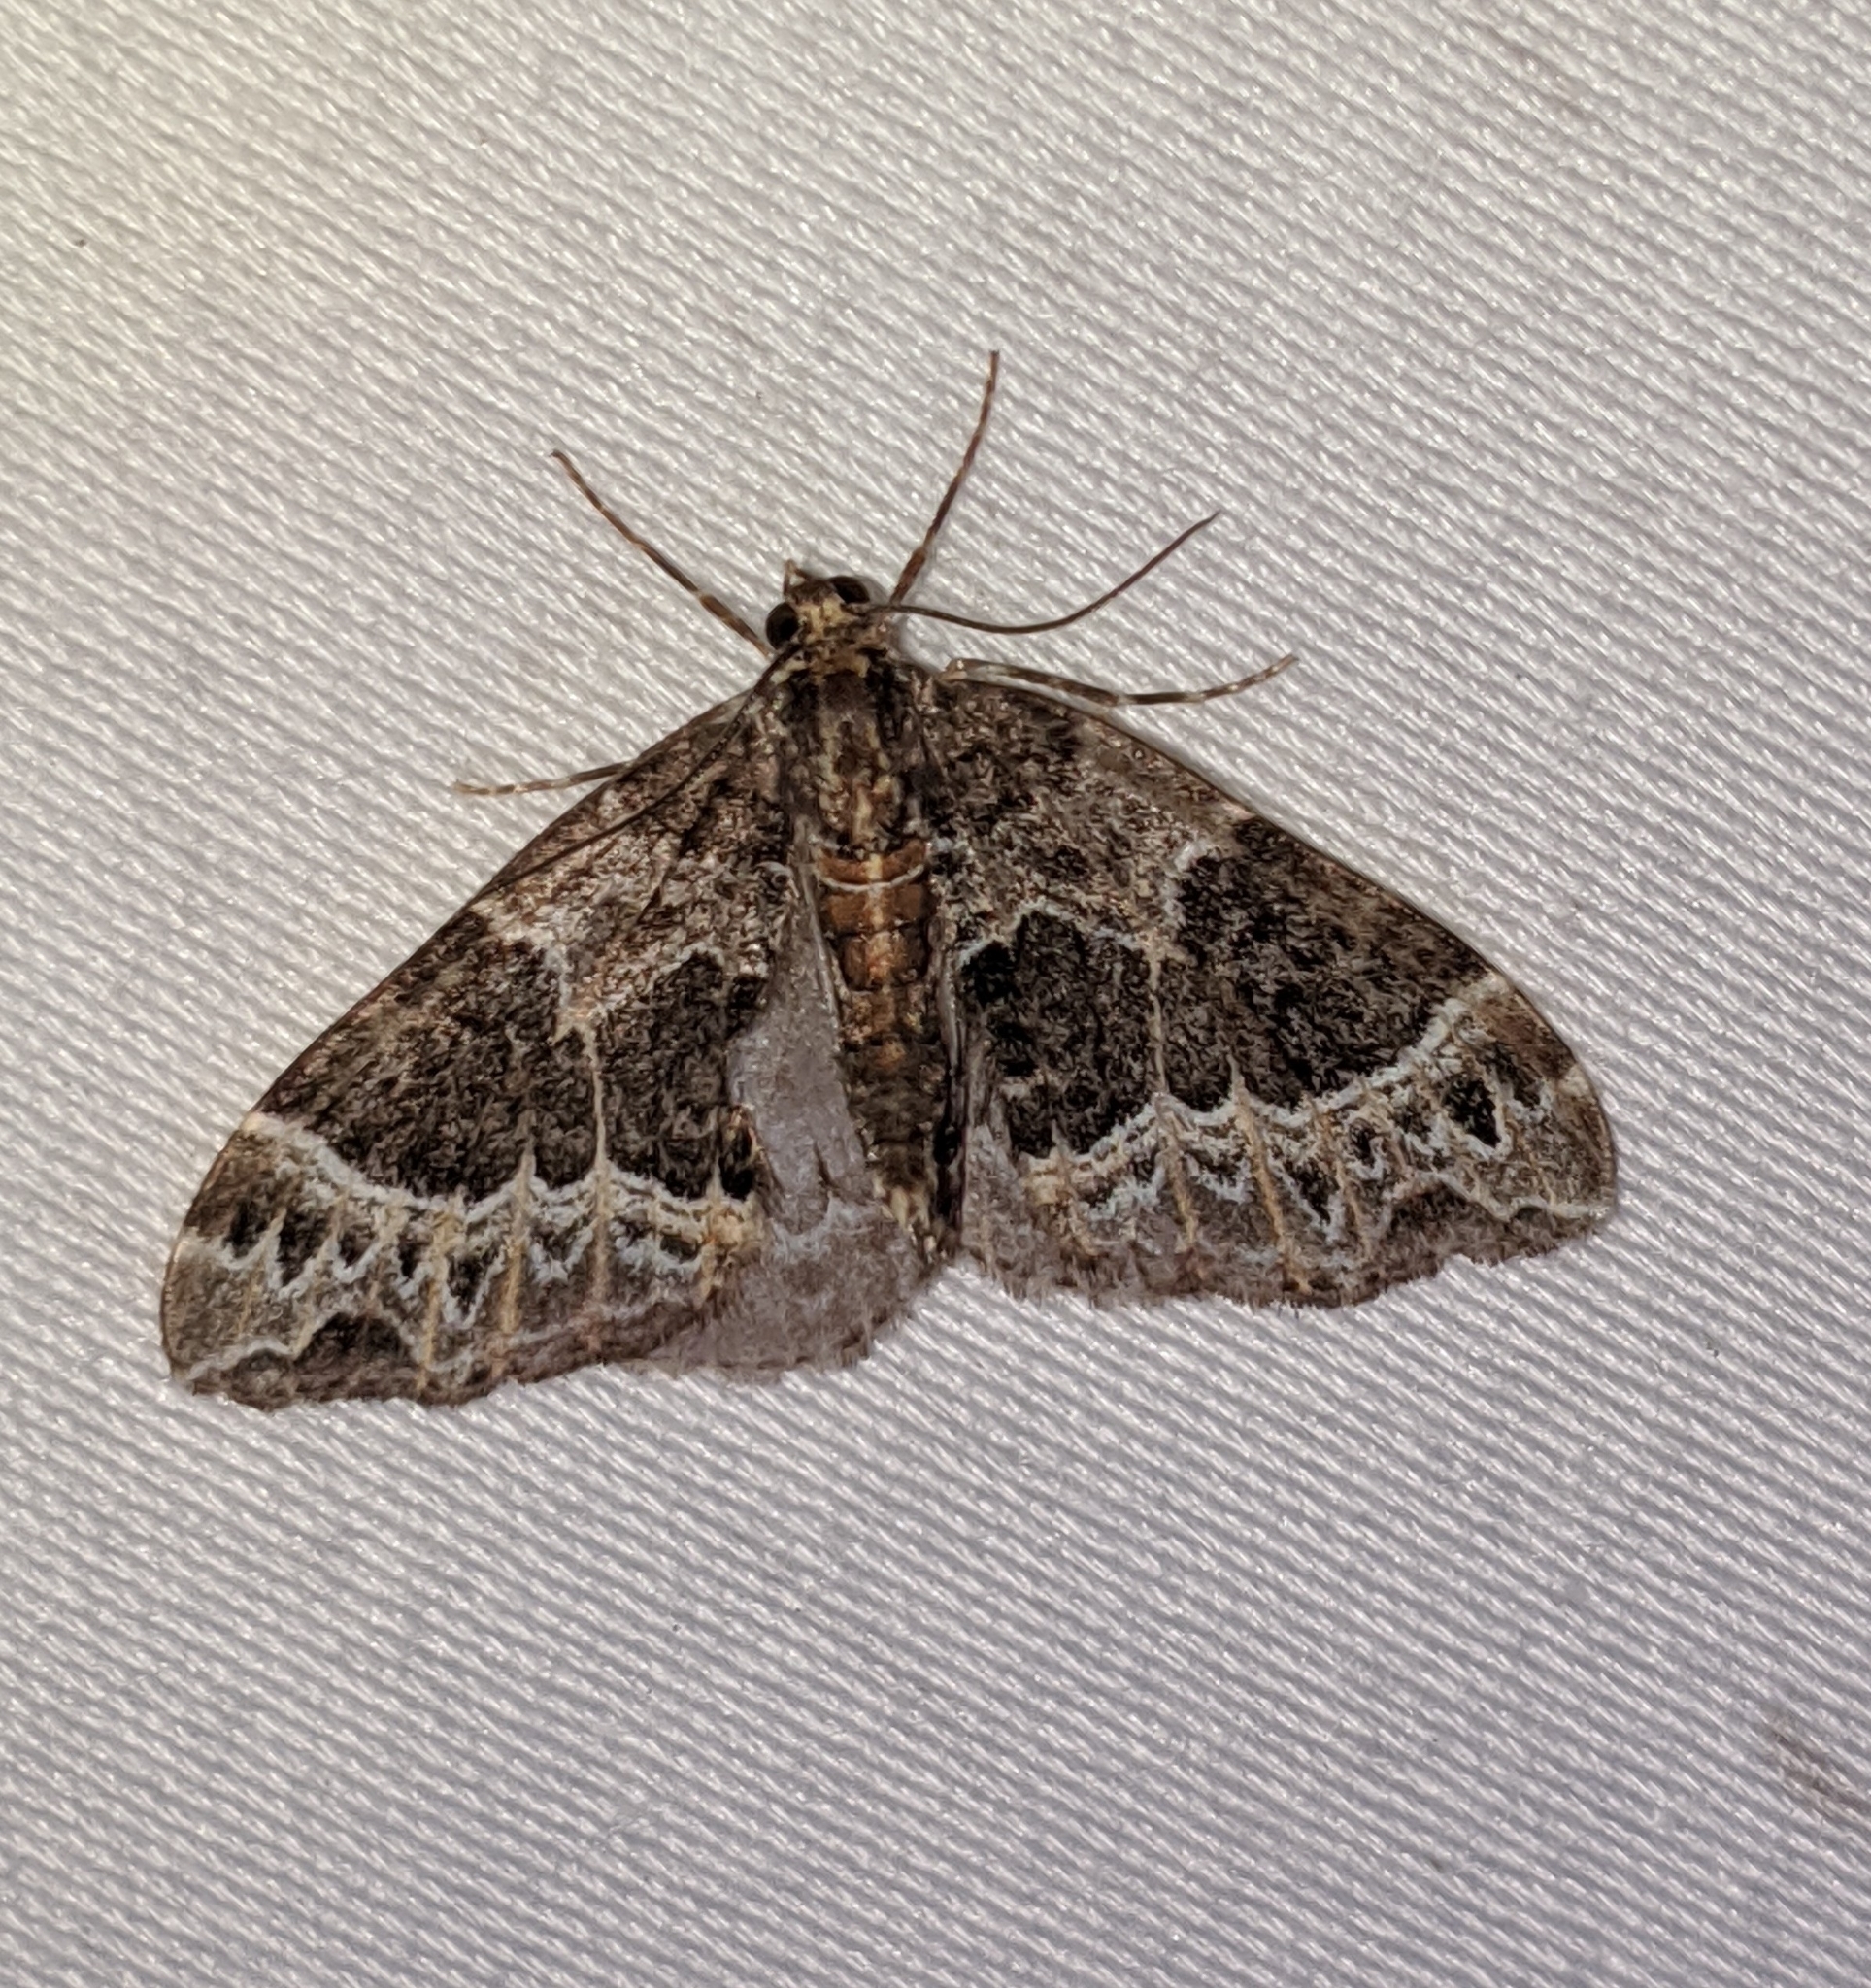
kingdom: Animalia
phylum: Arthropoda
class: Insecta
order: Lepidoptera
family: Geometridae
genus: Ecliptopera
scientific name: Ecliptopera silaceata
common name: Small phoenix
